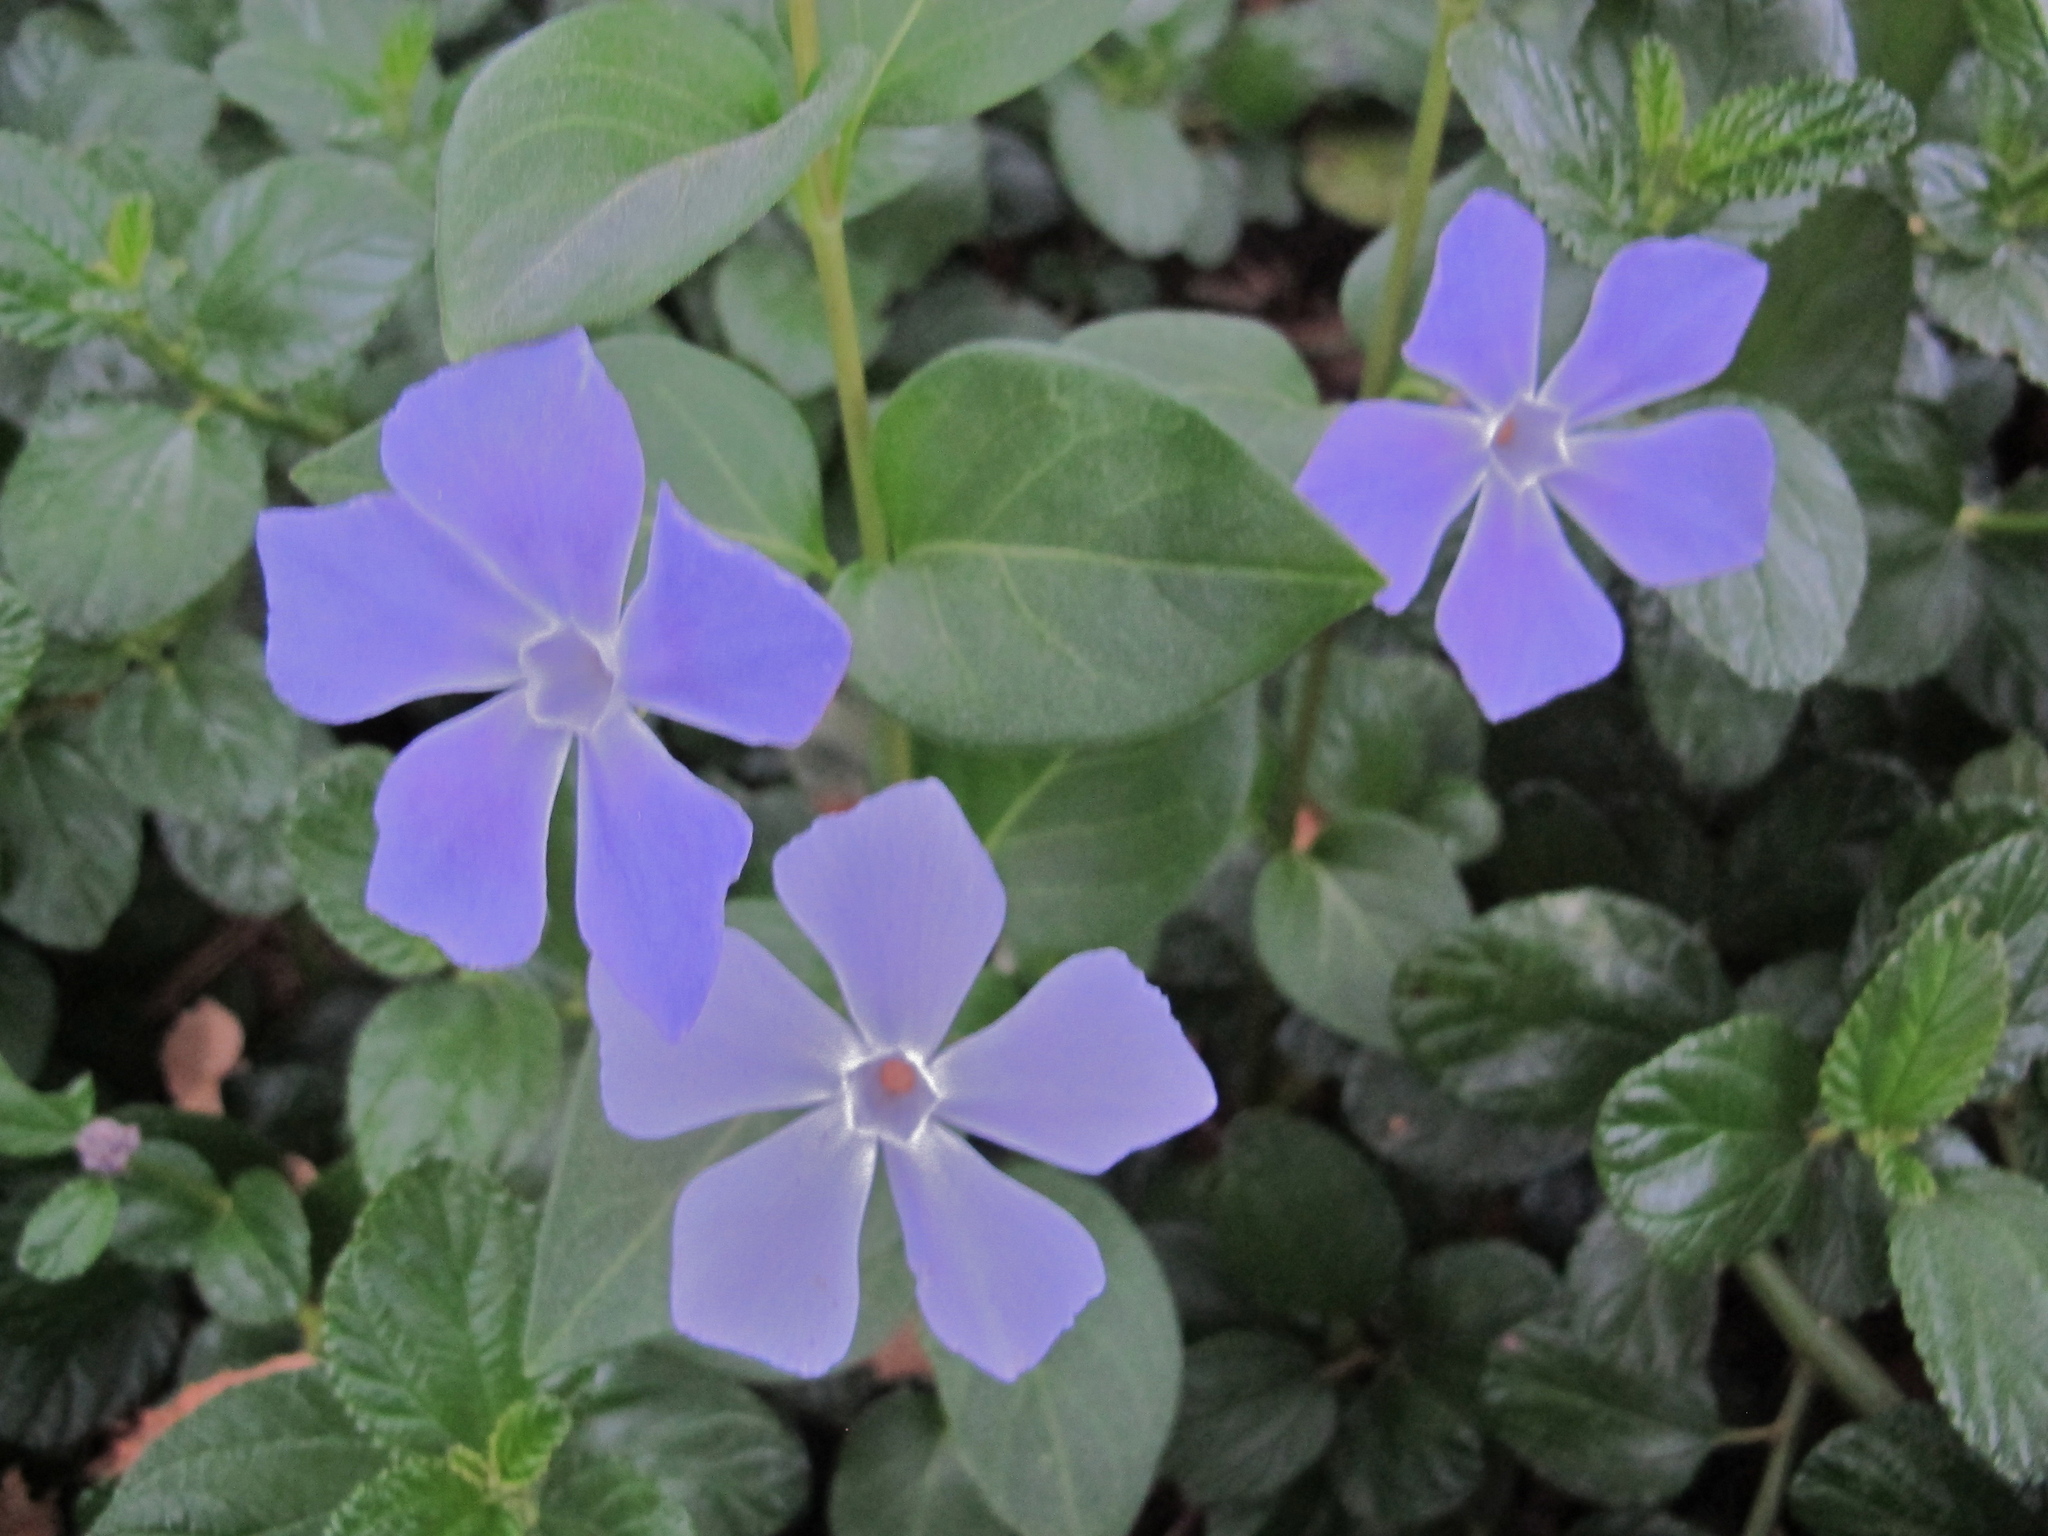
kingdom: Plantae
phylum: Tracheophyta
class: Magnoliopsida
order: Gentianales
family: Apocynaceae
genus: Vinca
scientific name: Vinca major
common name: Greater periwinkle
